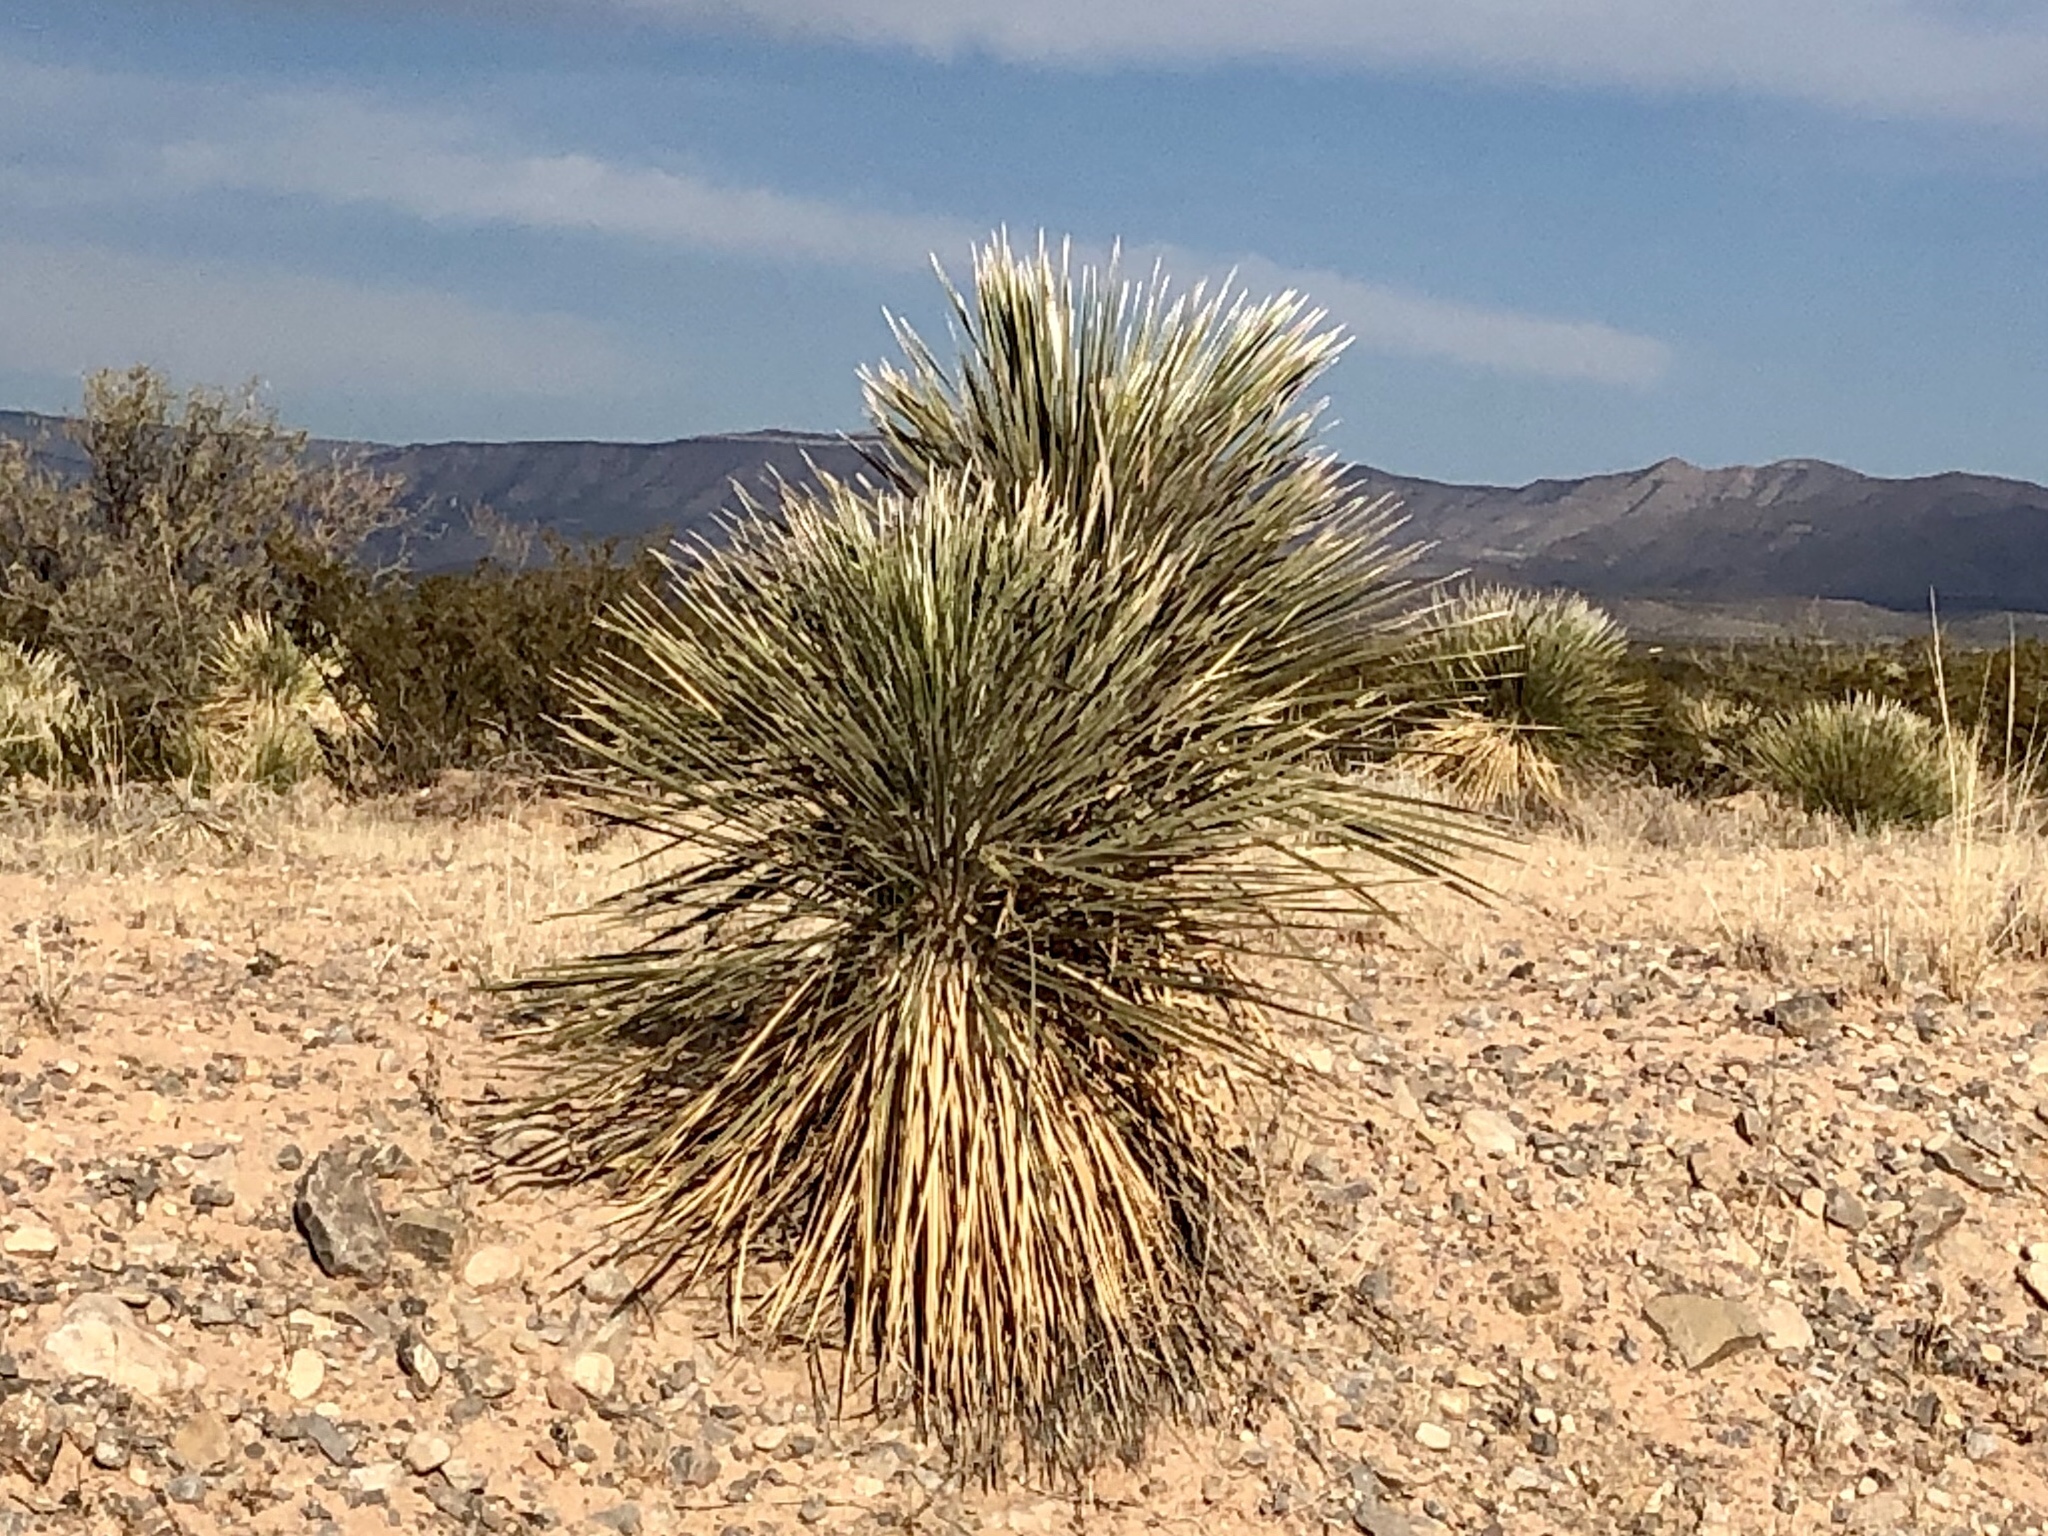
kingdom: Plantae
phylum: Tracheophyta
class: Liliopsida
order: Asparagales
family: Asparagaceae
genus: Yucca
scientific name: Yucca elata
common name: Palmella
